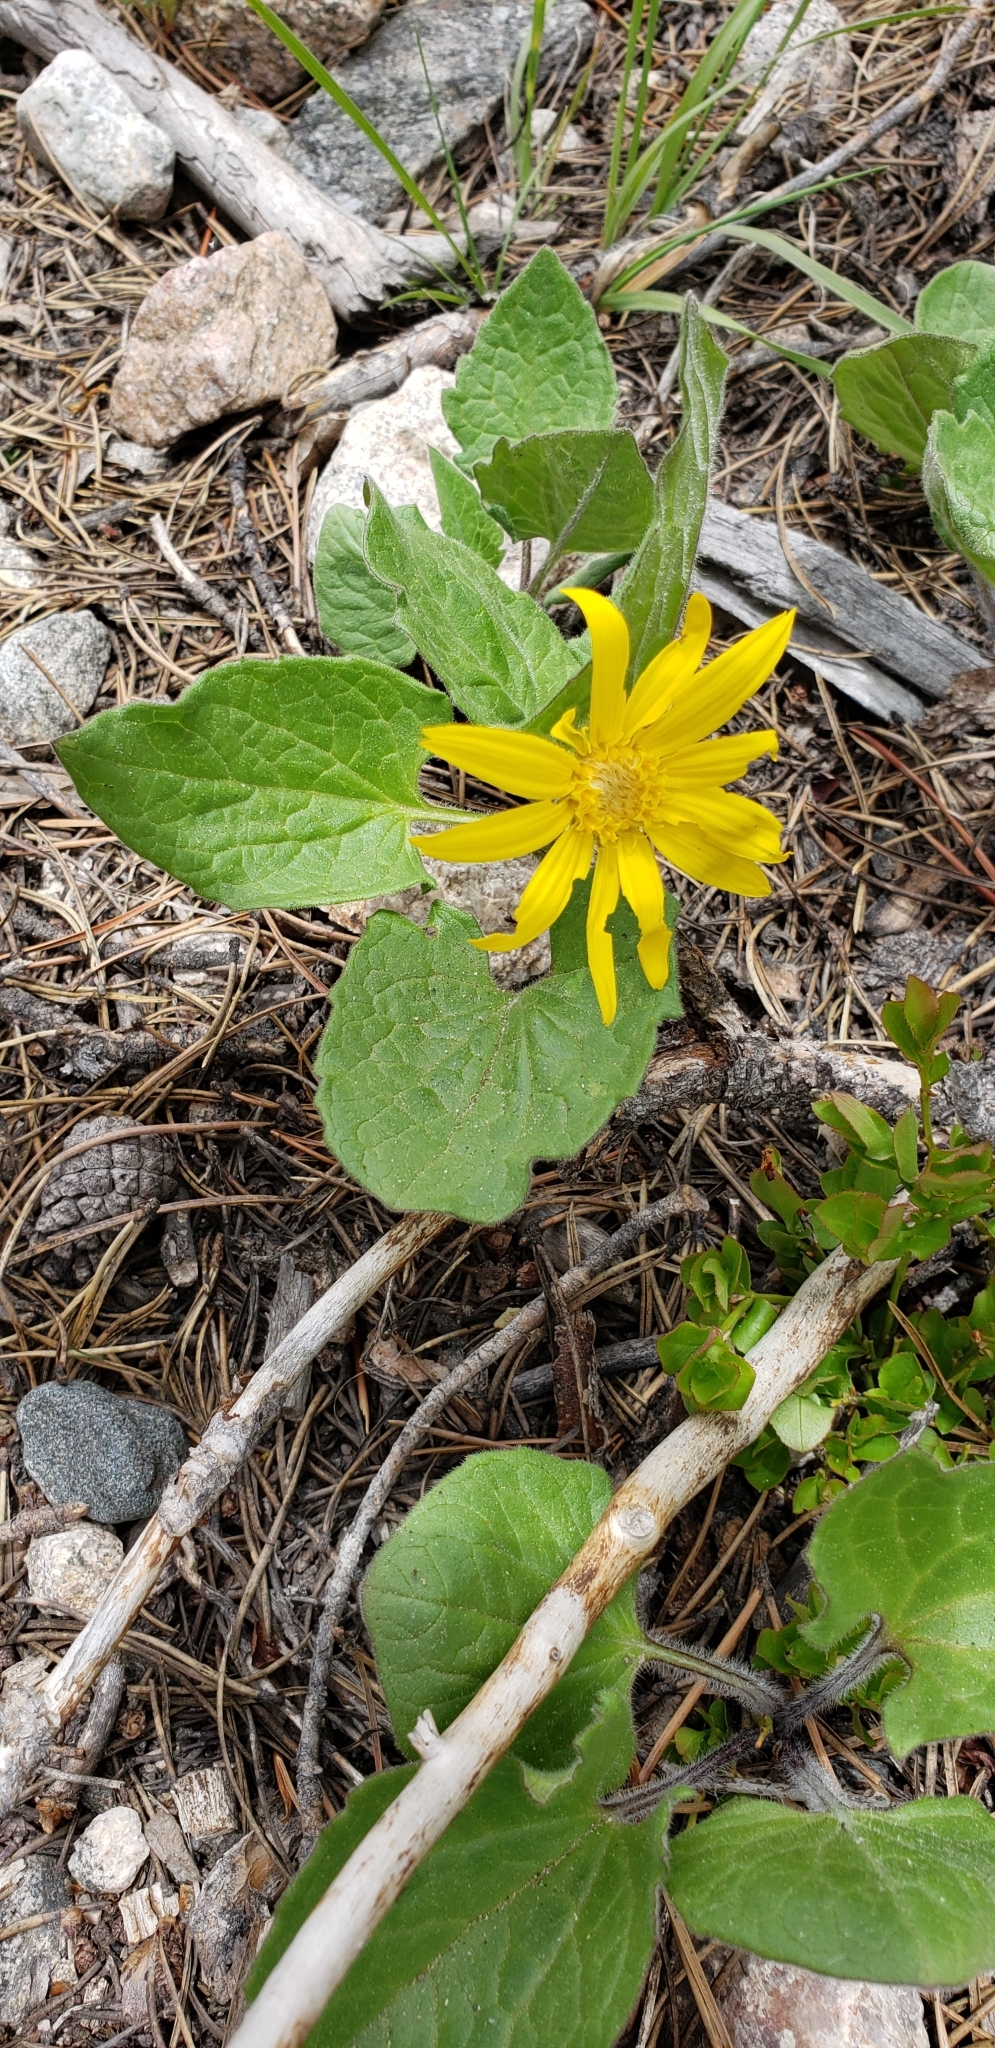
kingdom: Plantae
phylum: Tracheophyta
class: Magnoliopsida
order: Asterales
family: Asteraceae
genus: Arnica
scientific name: Arnica cordifolia
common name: Heart-leaf arnica
